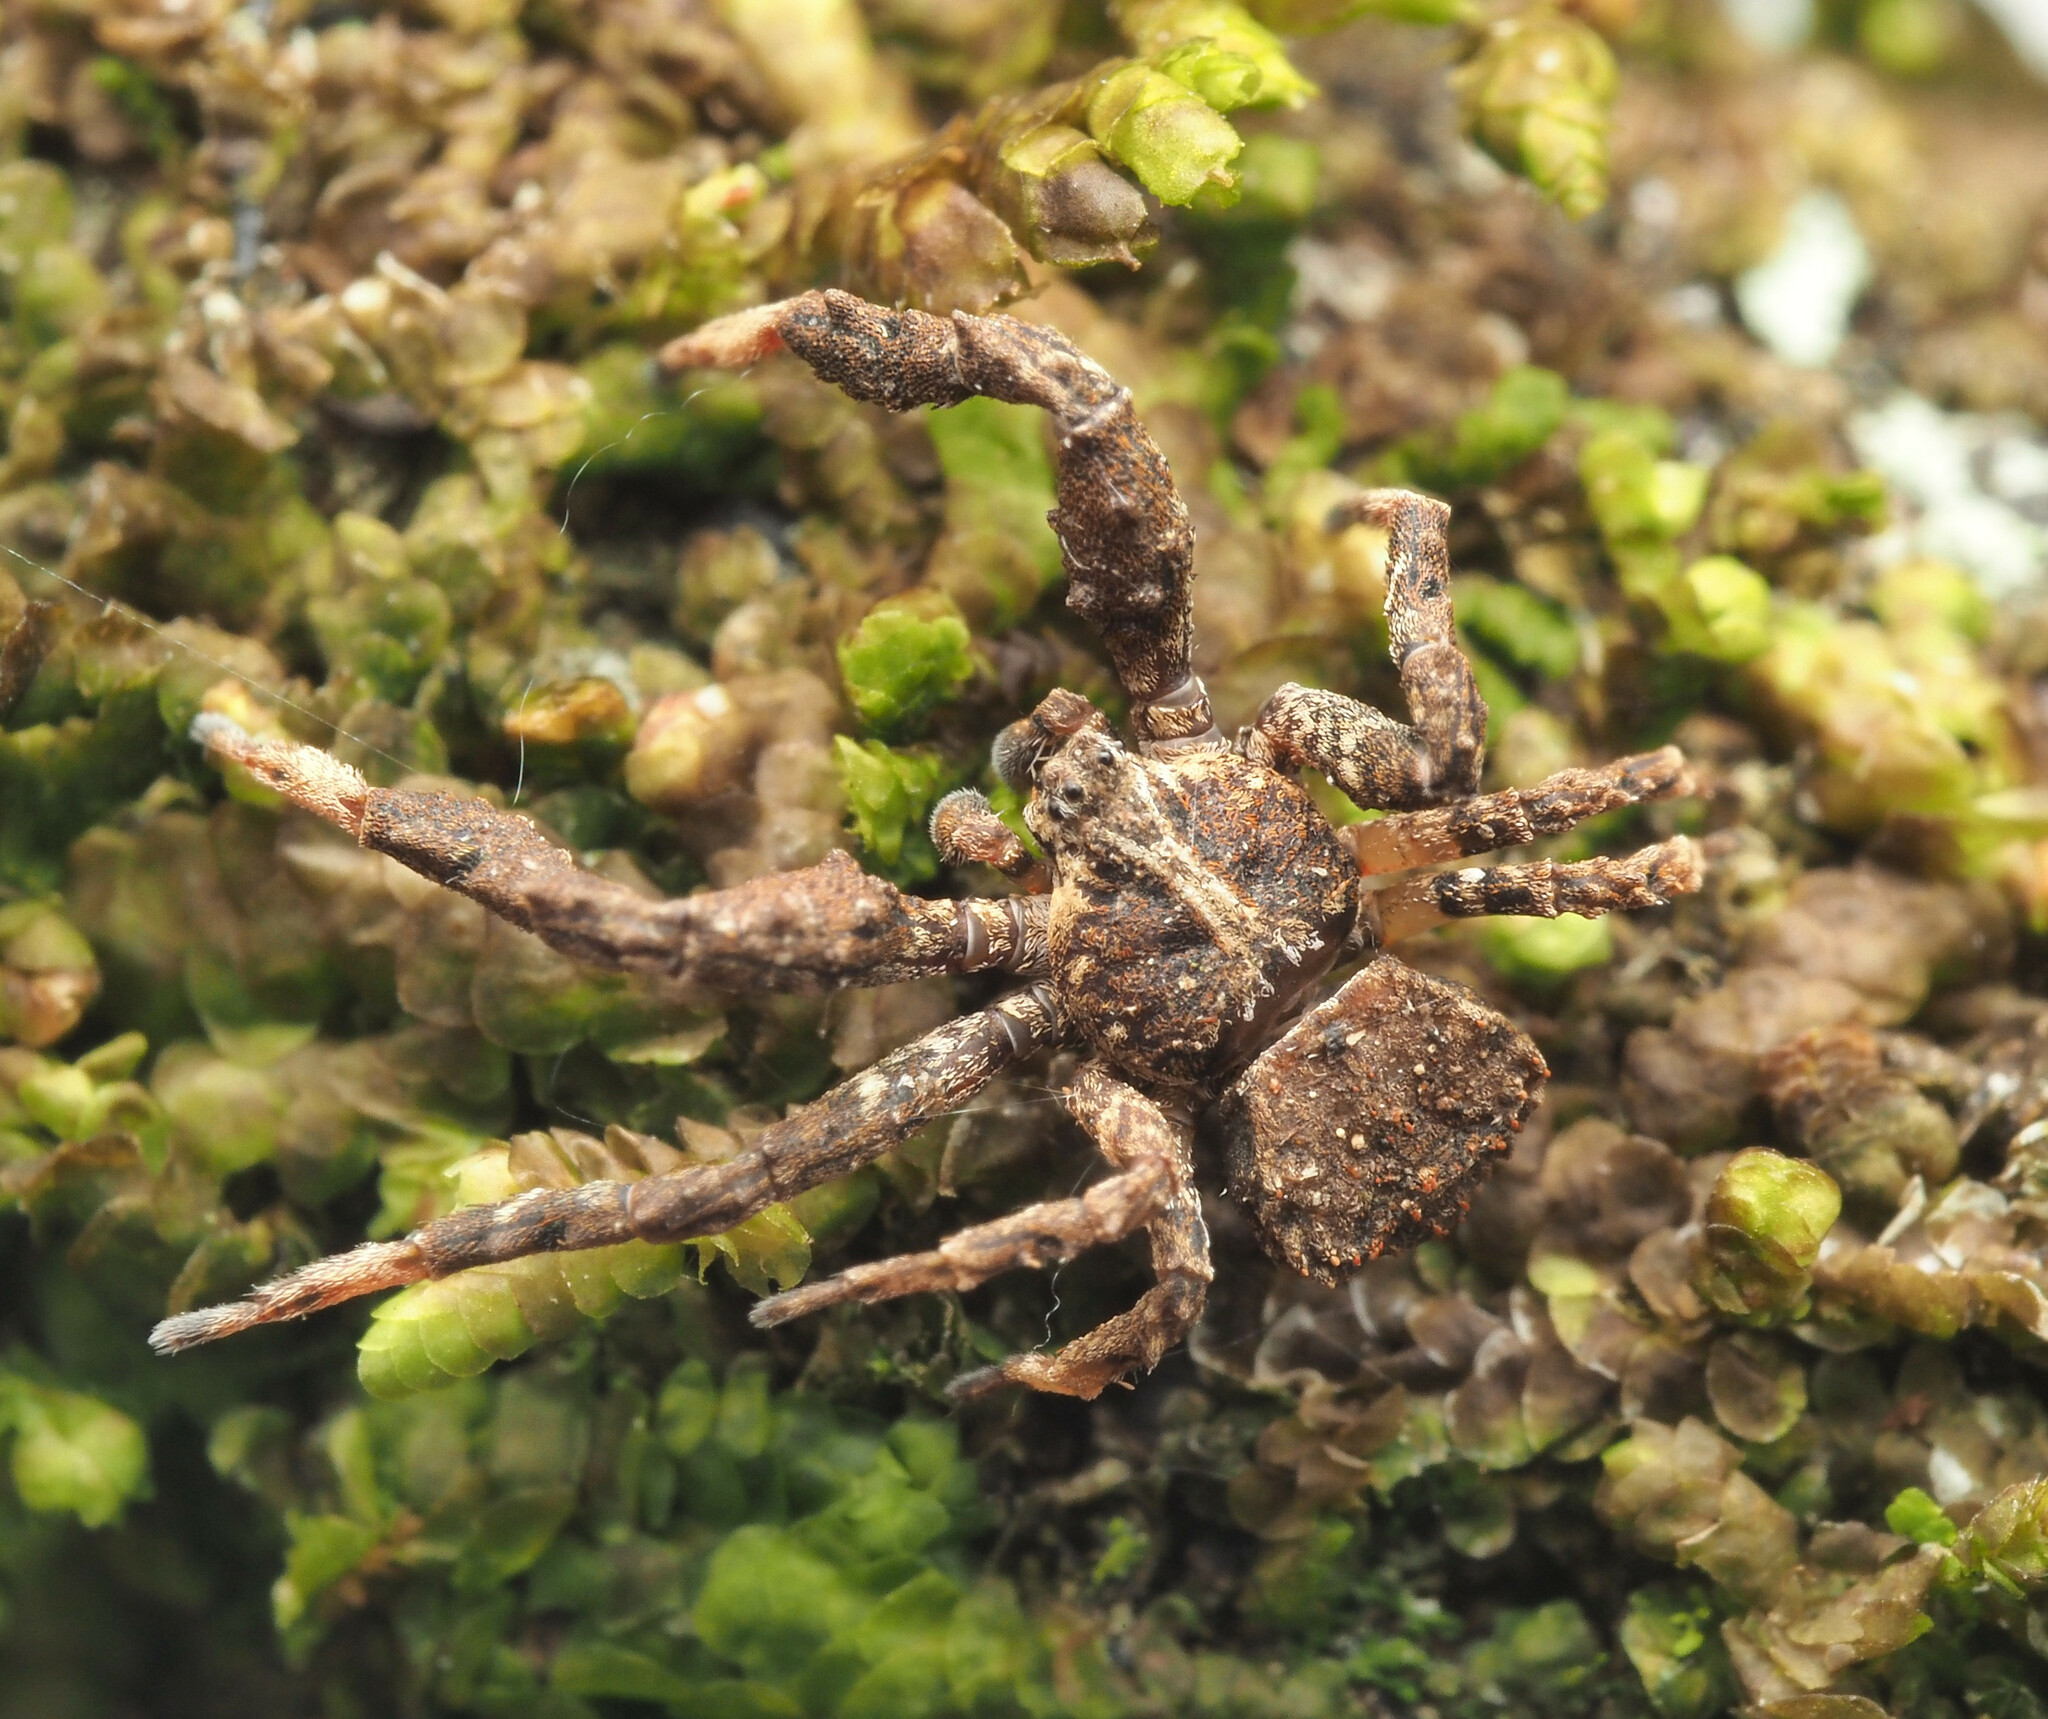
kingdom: Animalia
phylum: Arthropoda
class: Arachnida
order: Araneae
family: Thomisidae
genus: Stephanopis
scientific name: Stephanopis armata
